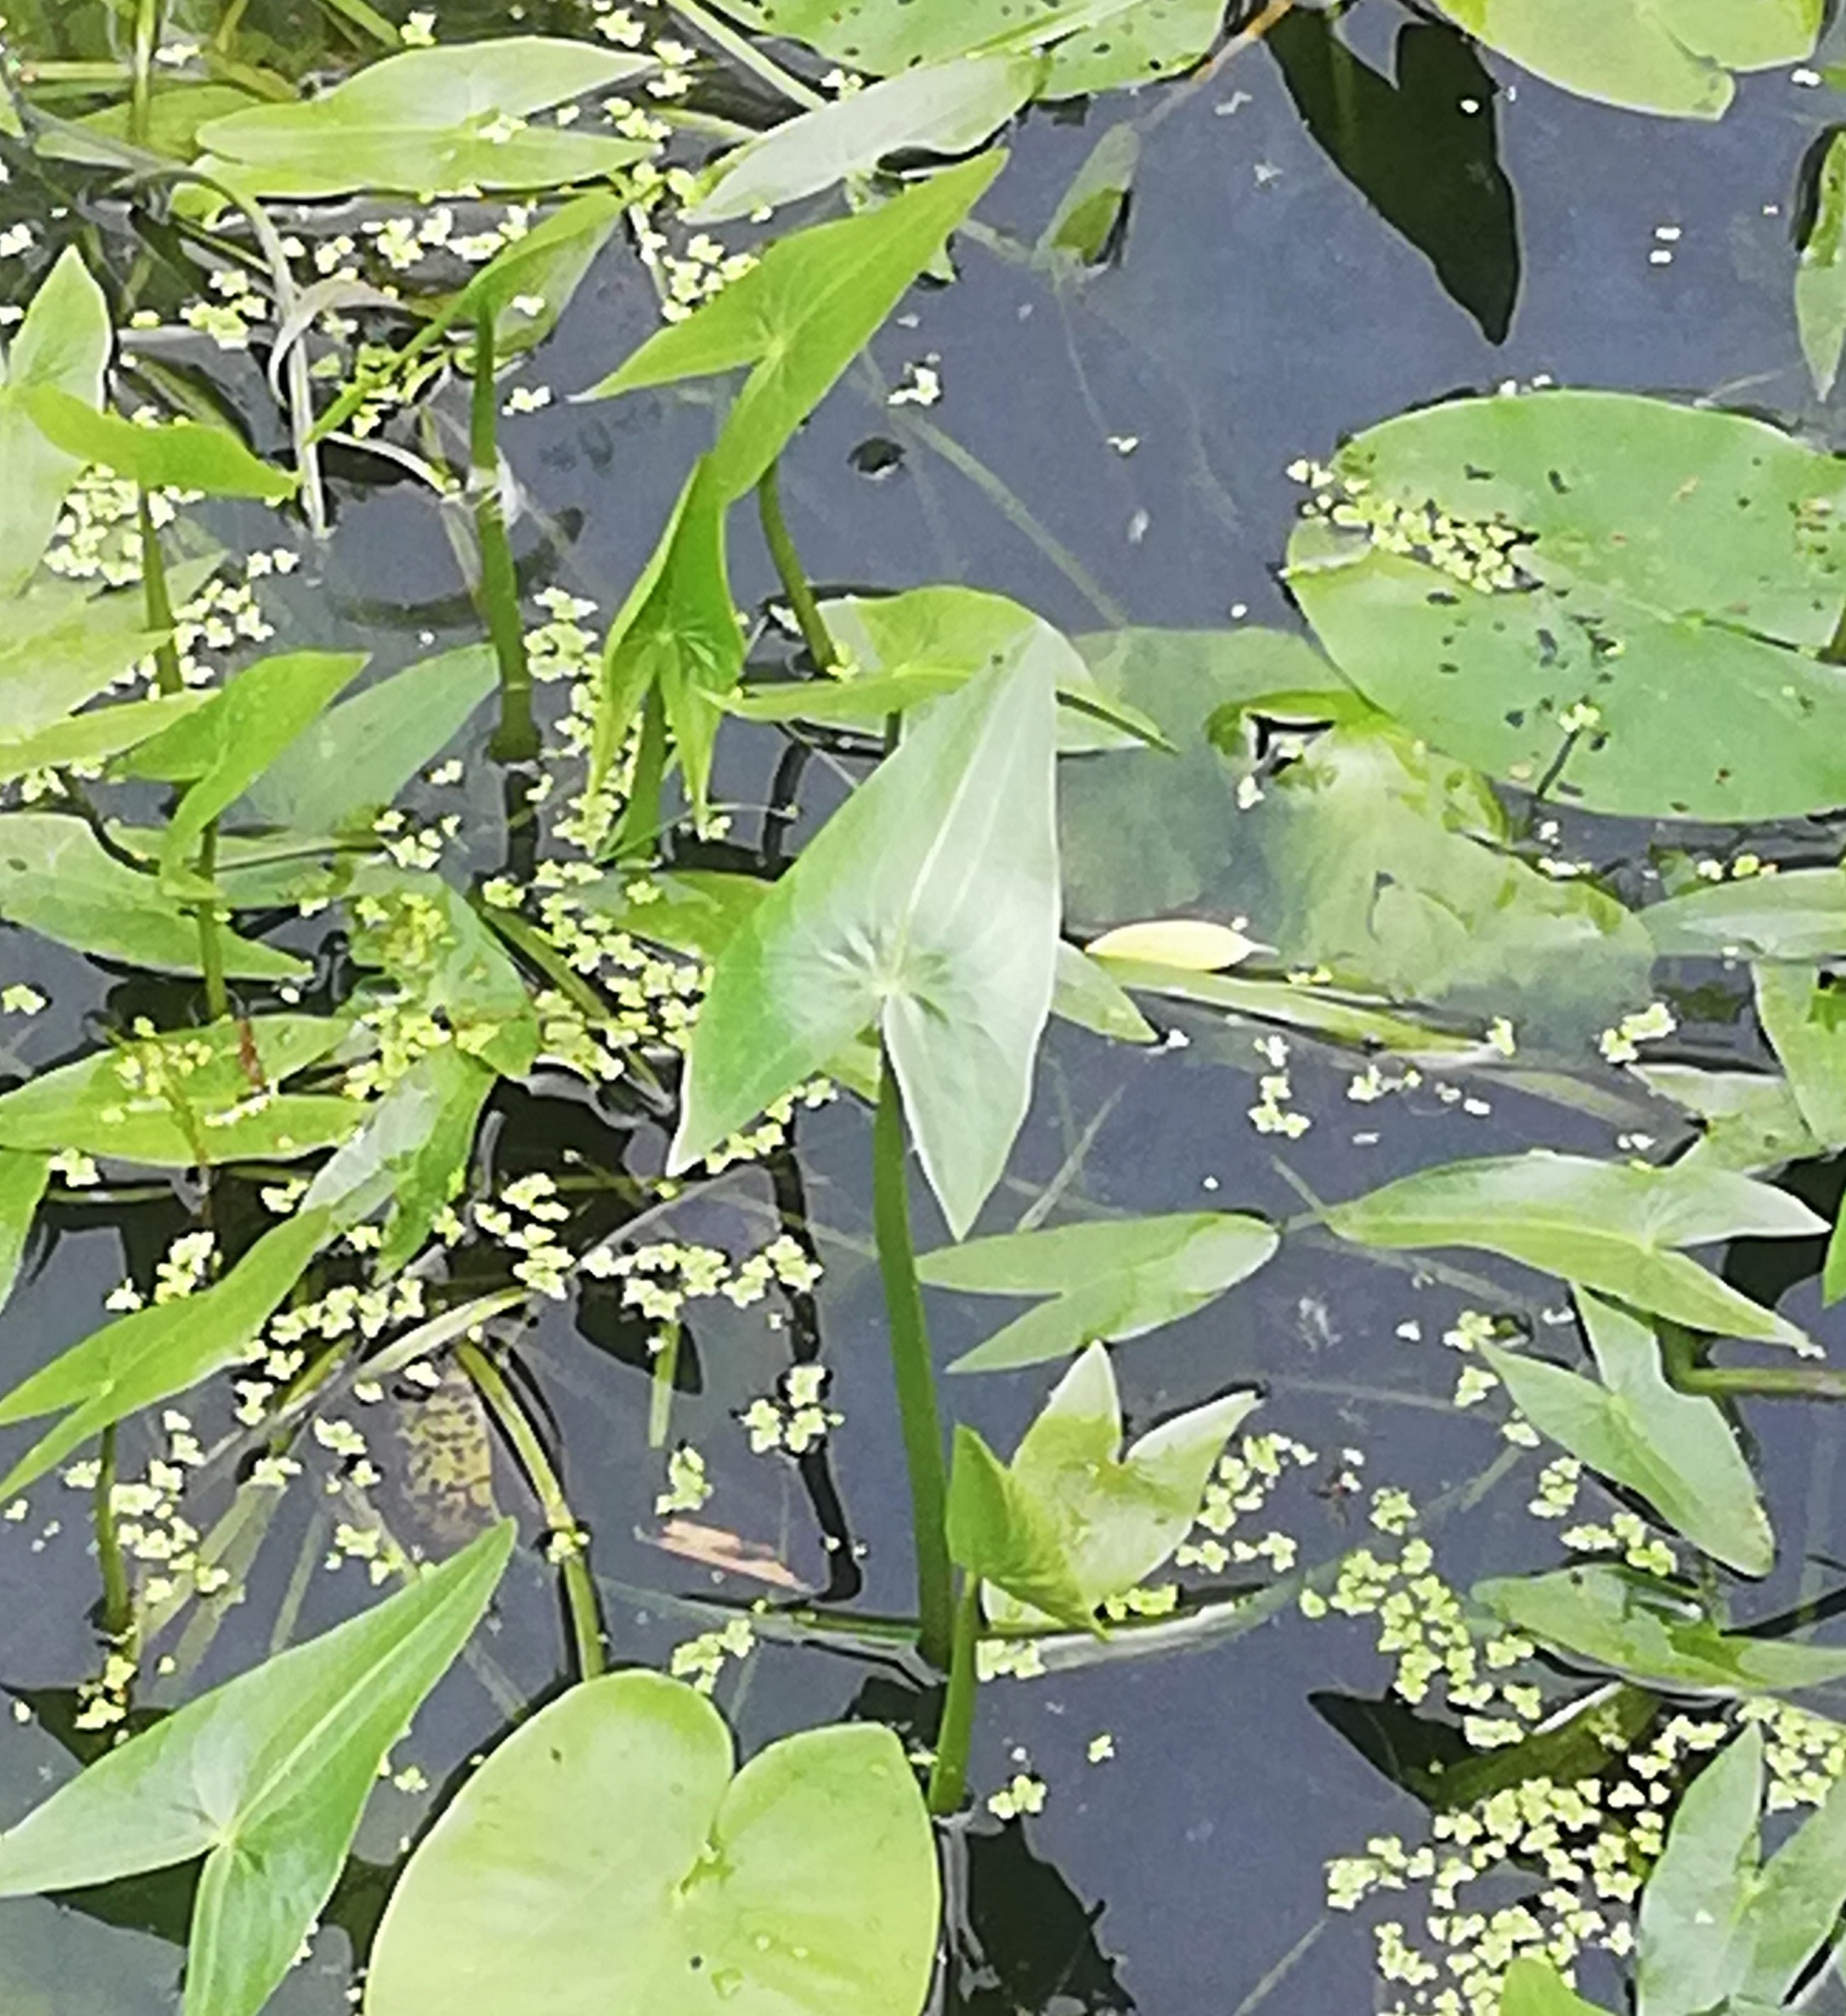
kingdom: Plantae
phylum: Tracheophyta
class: Liliopsida
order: Alismatales
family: Alismataceae
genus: Sagittaria
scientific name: Sagittaria sagittifolia
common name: Arrowhead
